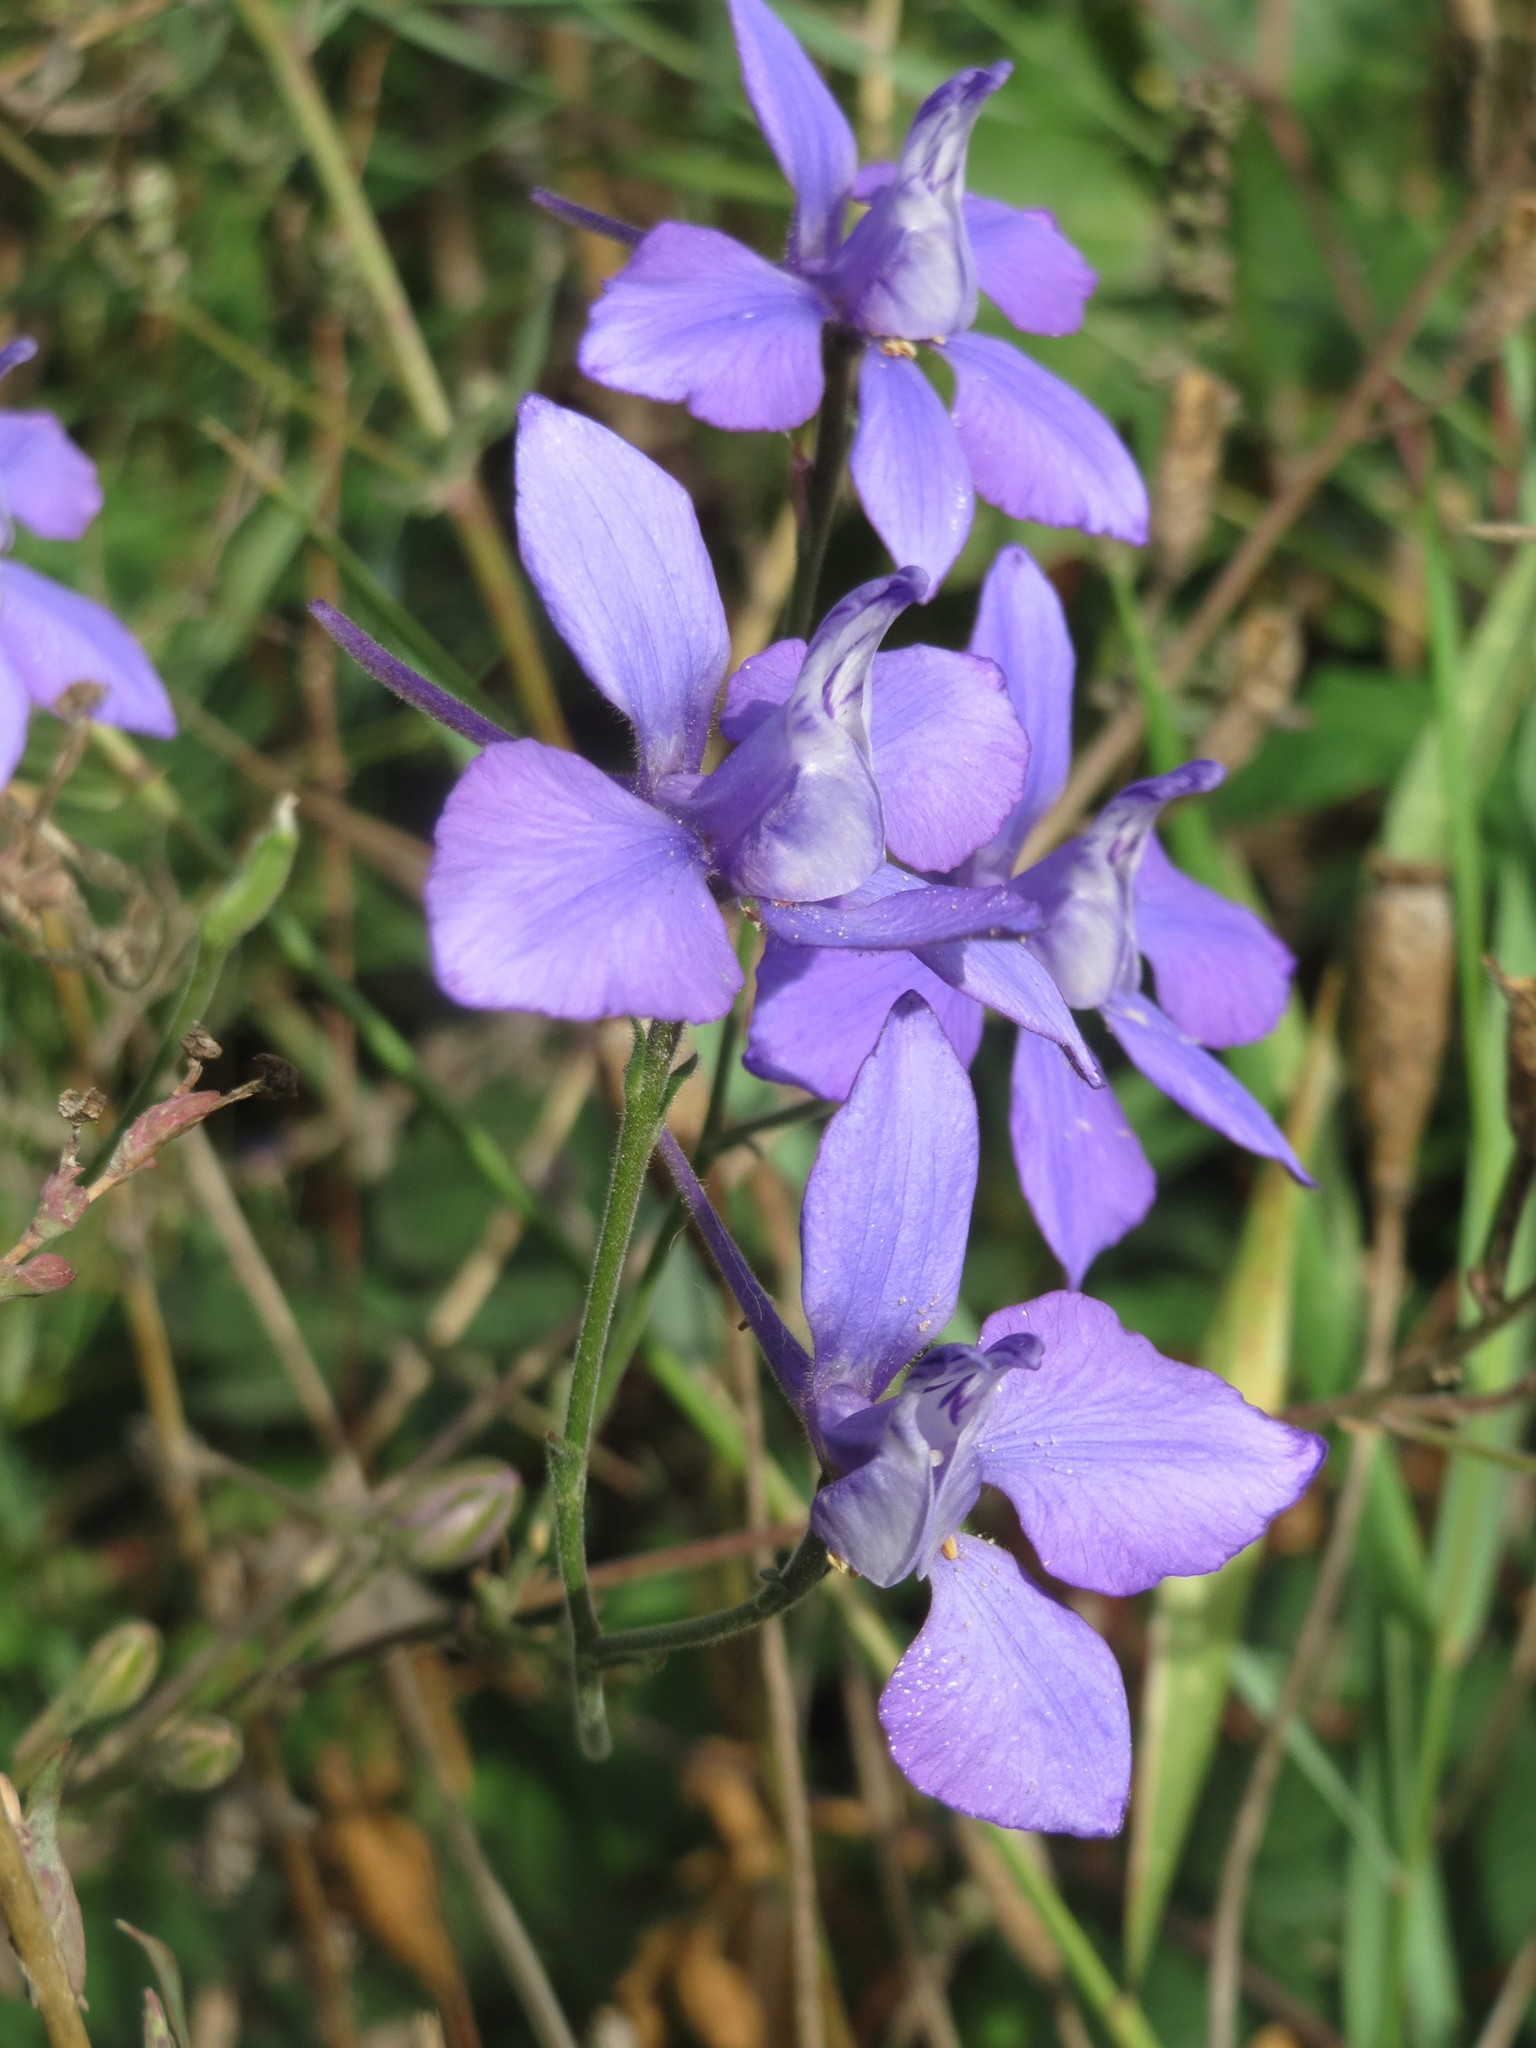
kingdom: Plantae
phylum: Tracheophyta
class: Magnoliopsida
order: Ranunculales
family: Ranunculaceae
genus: Delphinium
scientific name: Delphinium ajacis
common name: Doubtful knight's-spur
